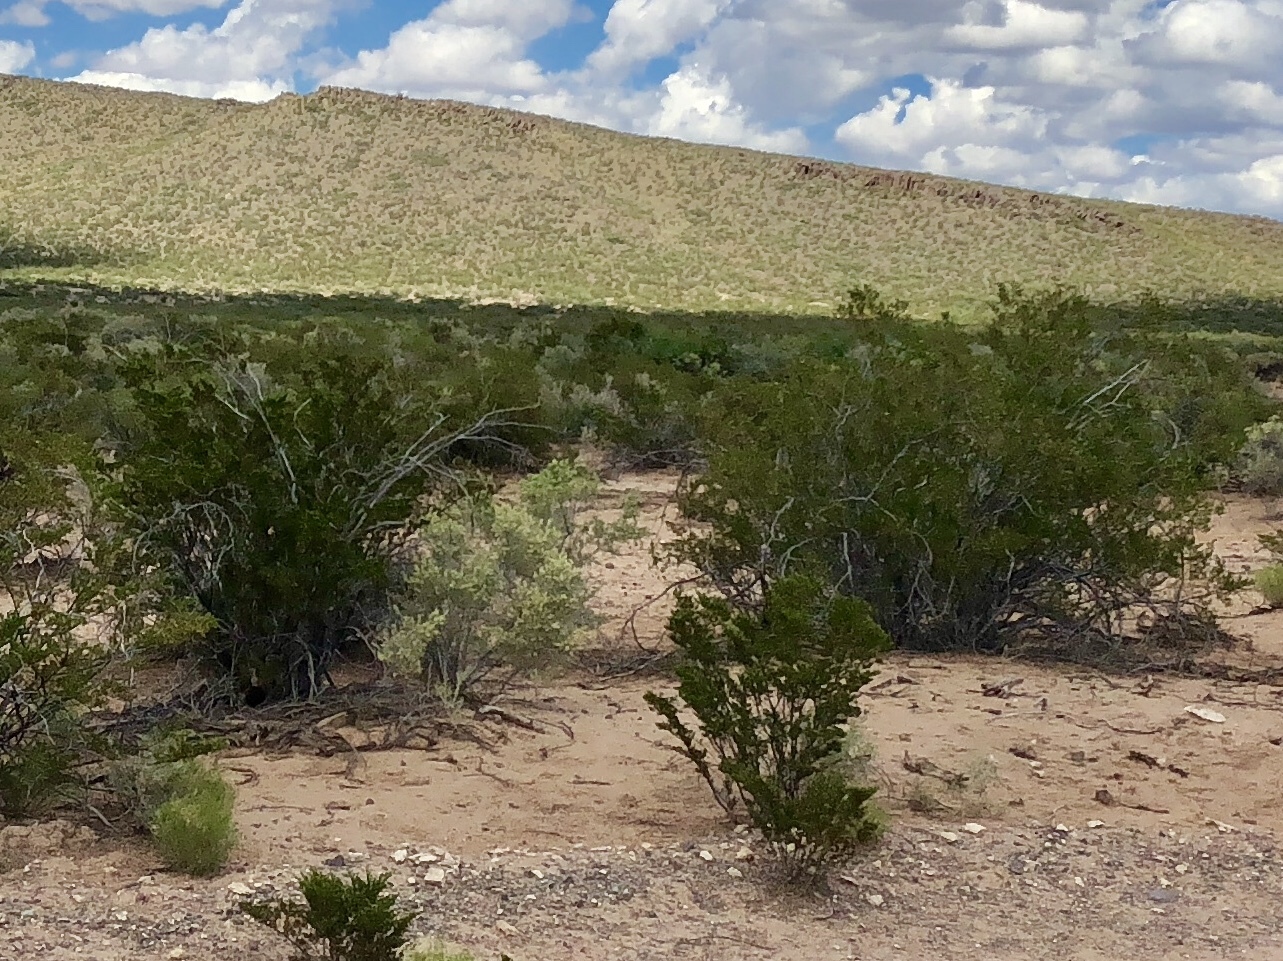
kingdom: Plantae
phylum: Tracheophyta
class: Magnoliopsida
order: Zygophyllales
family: Zygophyllaceae
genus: Larrea
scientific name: Larrea tridentata
